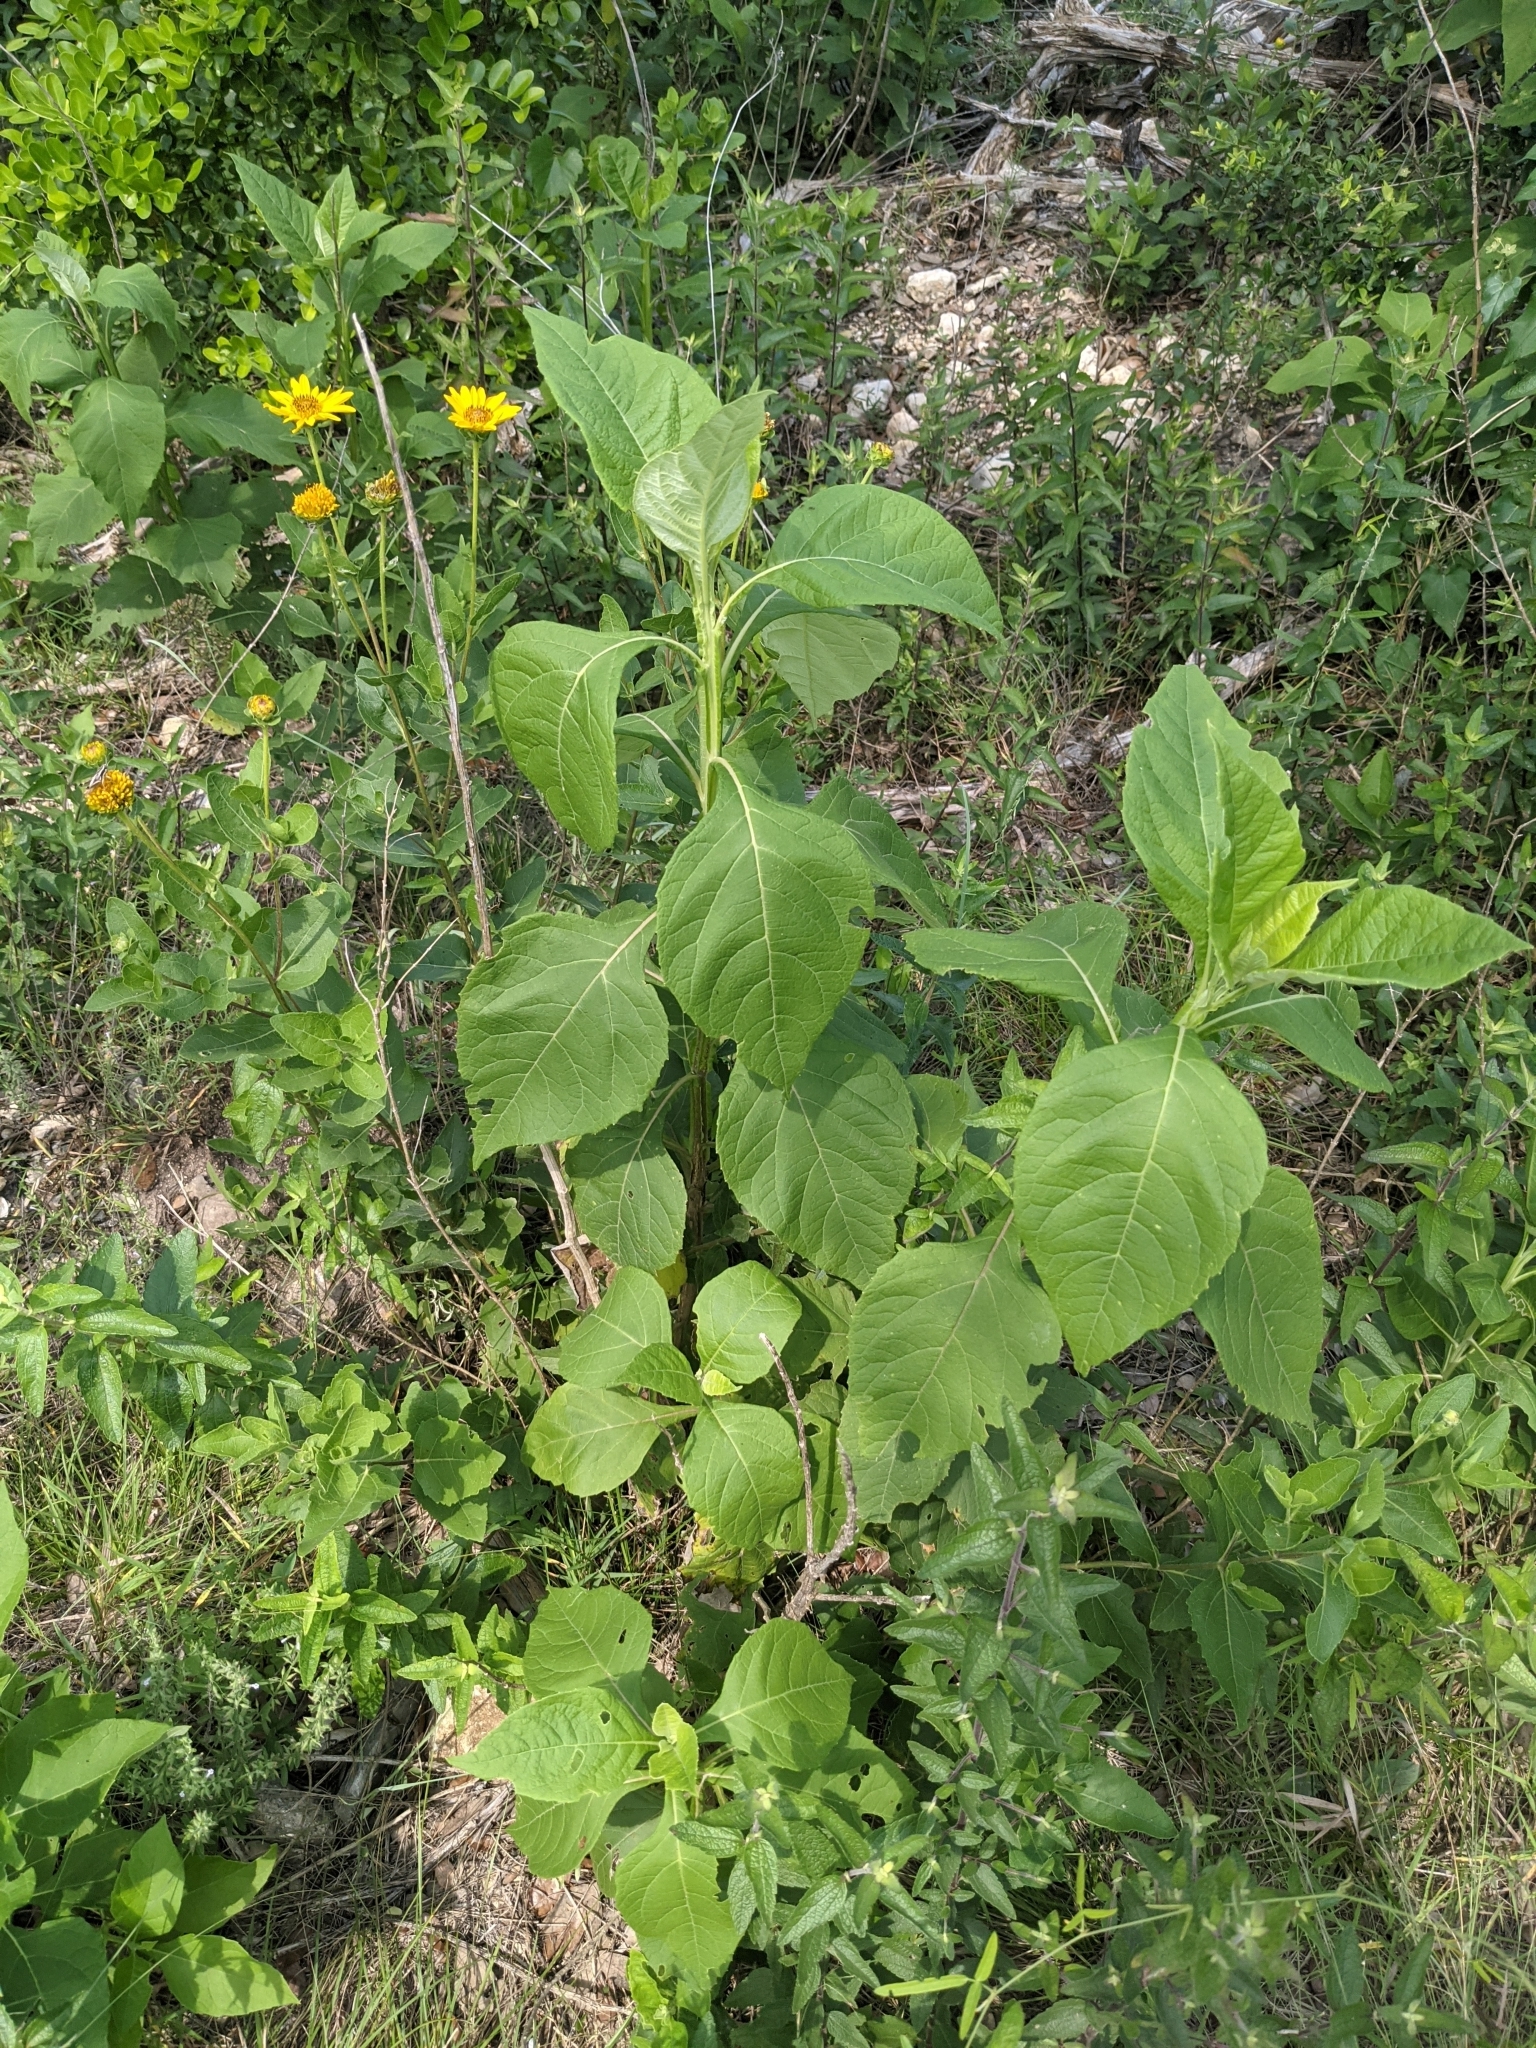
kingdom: Plantae
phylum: Tracheophyta
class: Magnoliopsida
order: Asterales
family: Asteraceae
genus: Verbesina
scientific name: Verbesina virginica
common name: Frostweed
